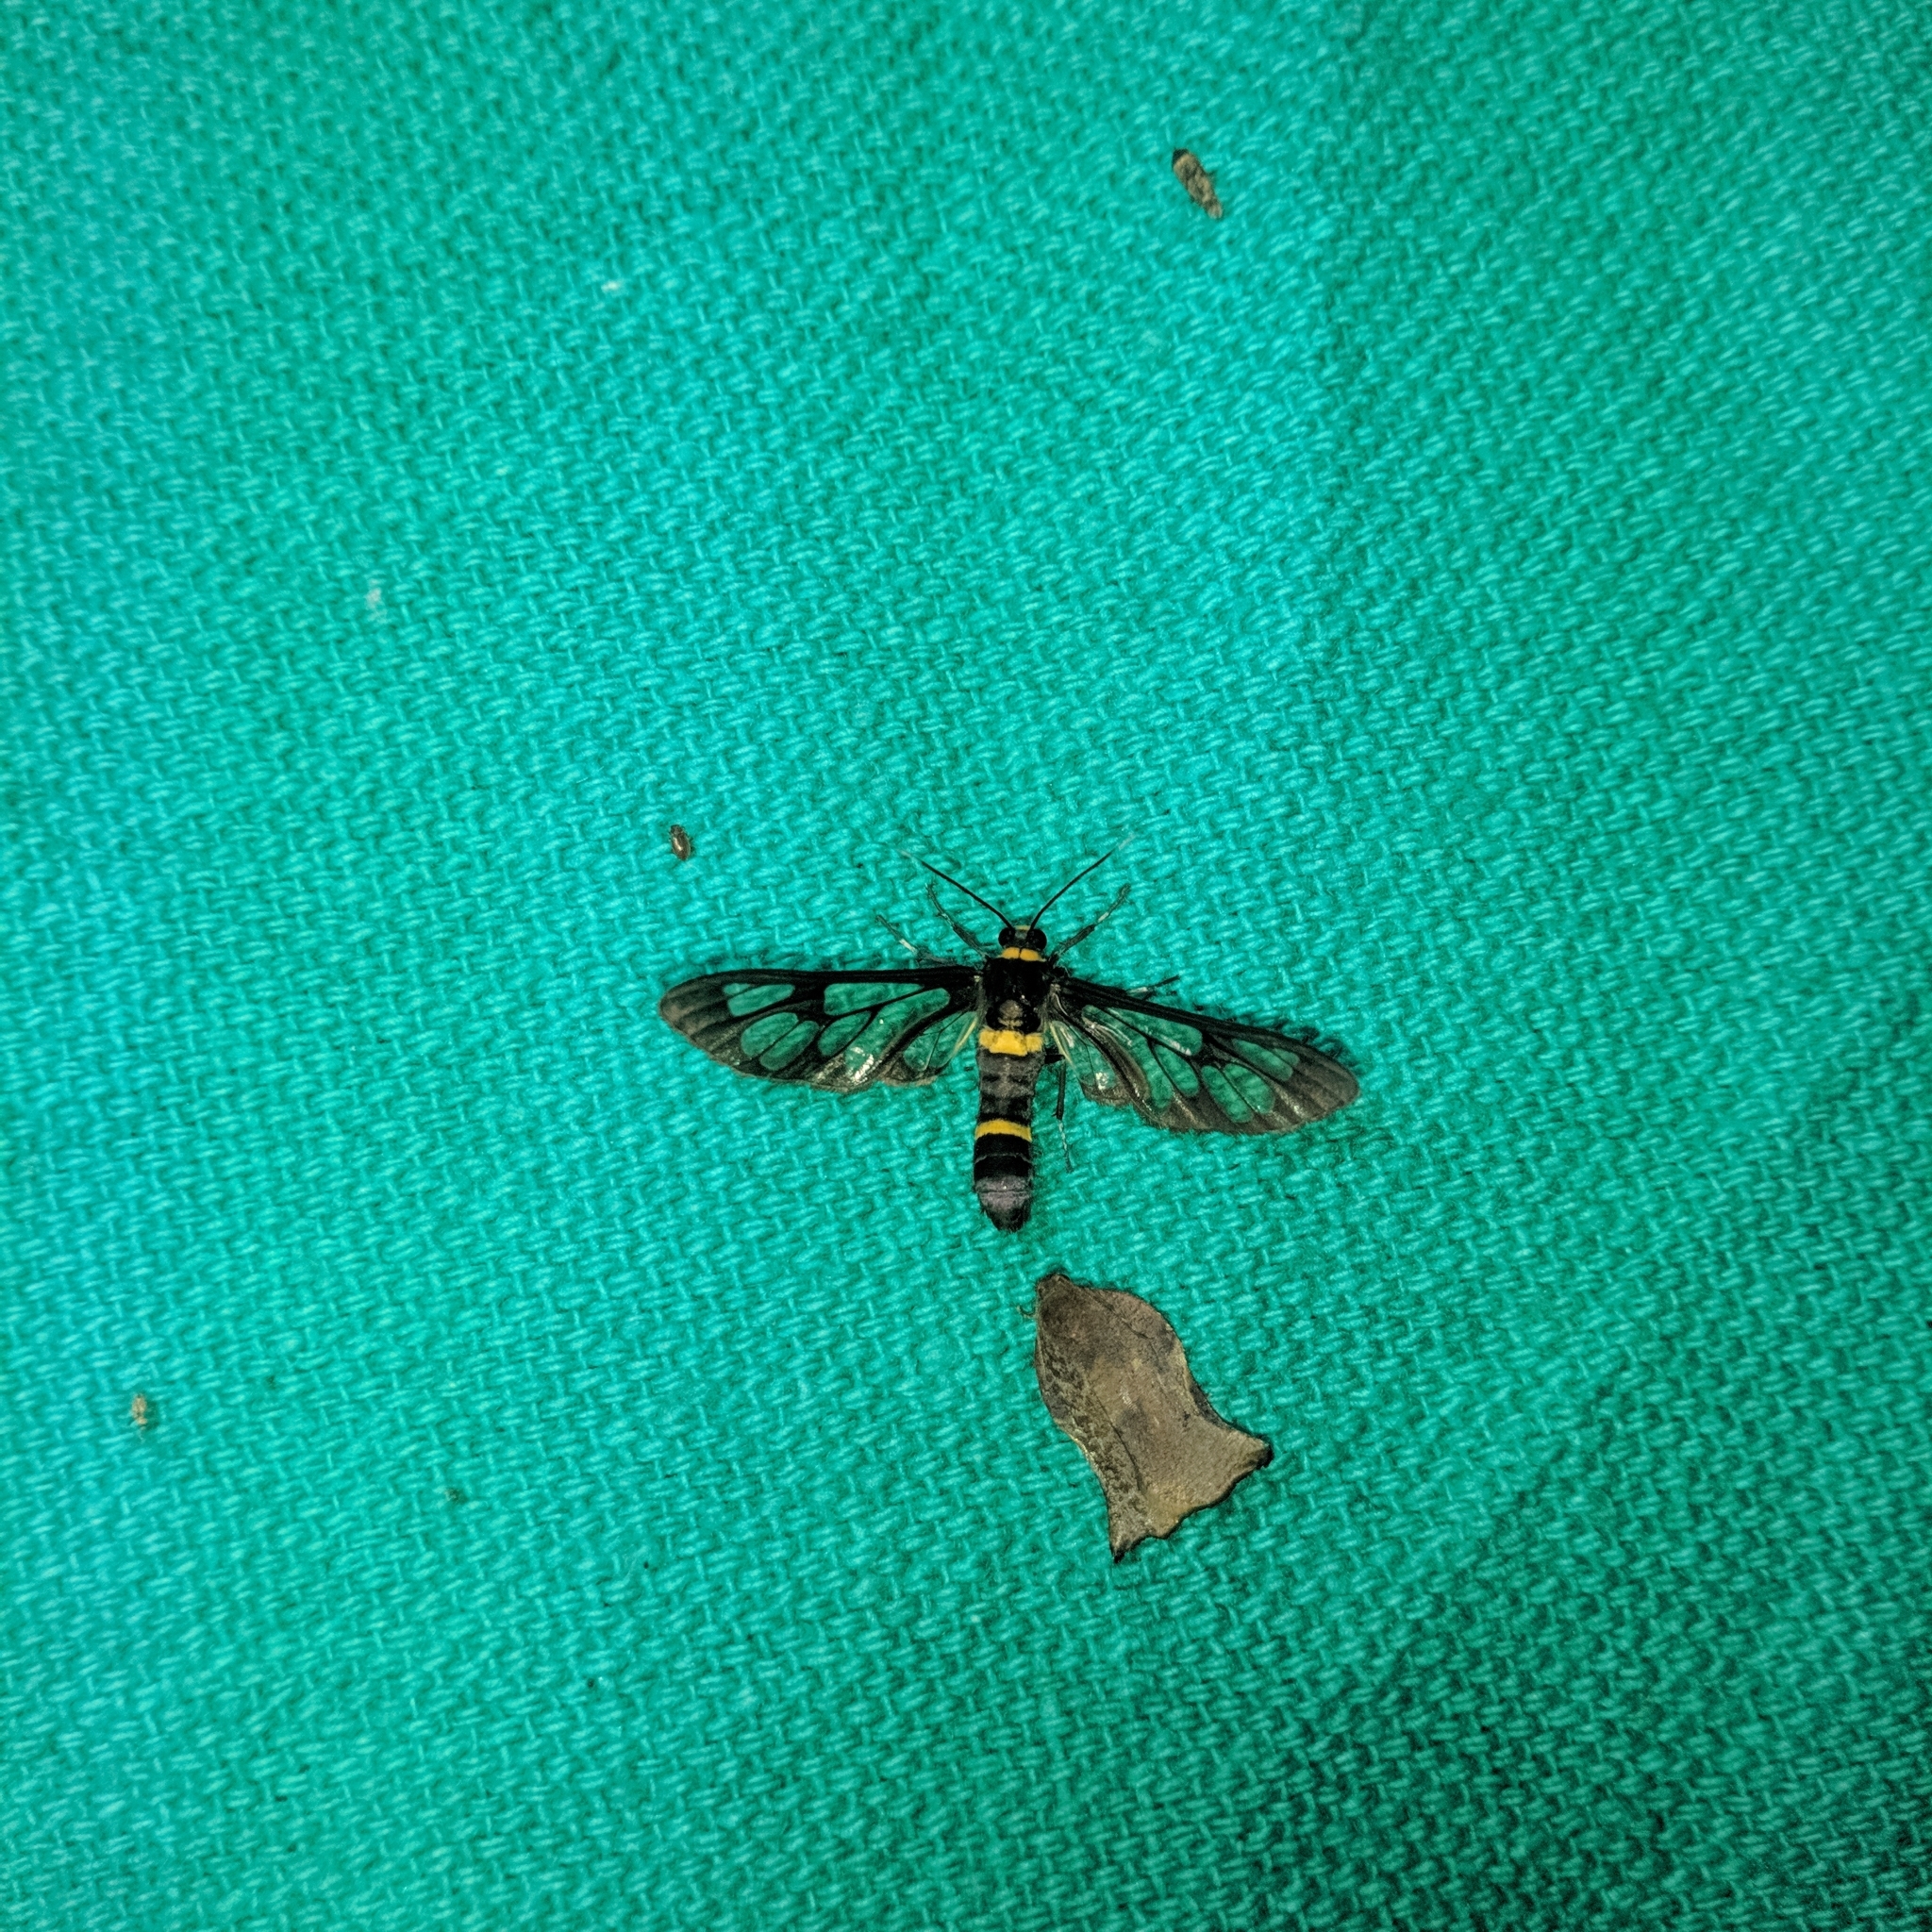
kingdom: Animalia
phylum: Arthropoda
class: Insecta
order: Lepidoptera
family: Erebidae
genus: Syntomoides
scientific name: Syntomoides imaon
